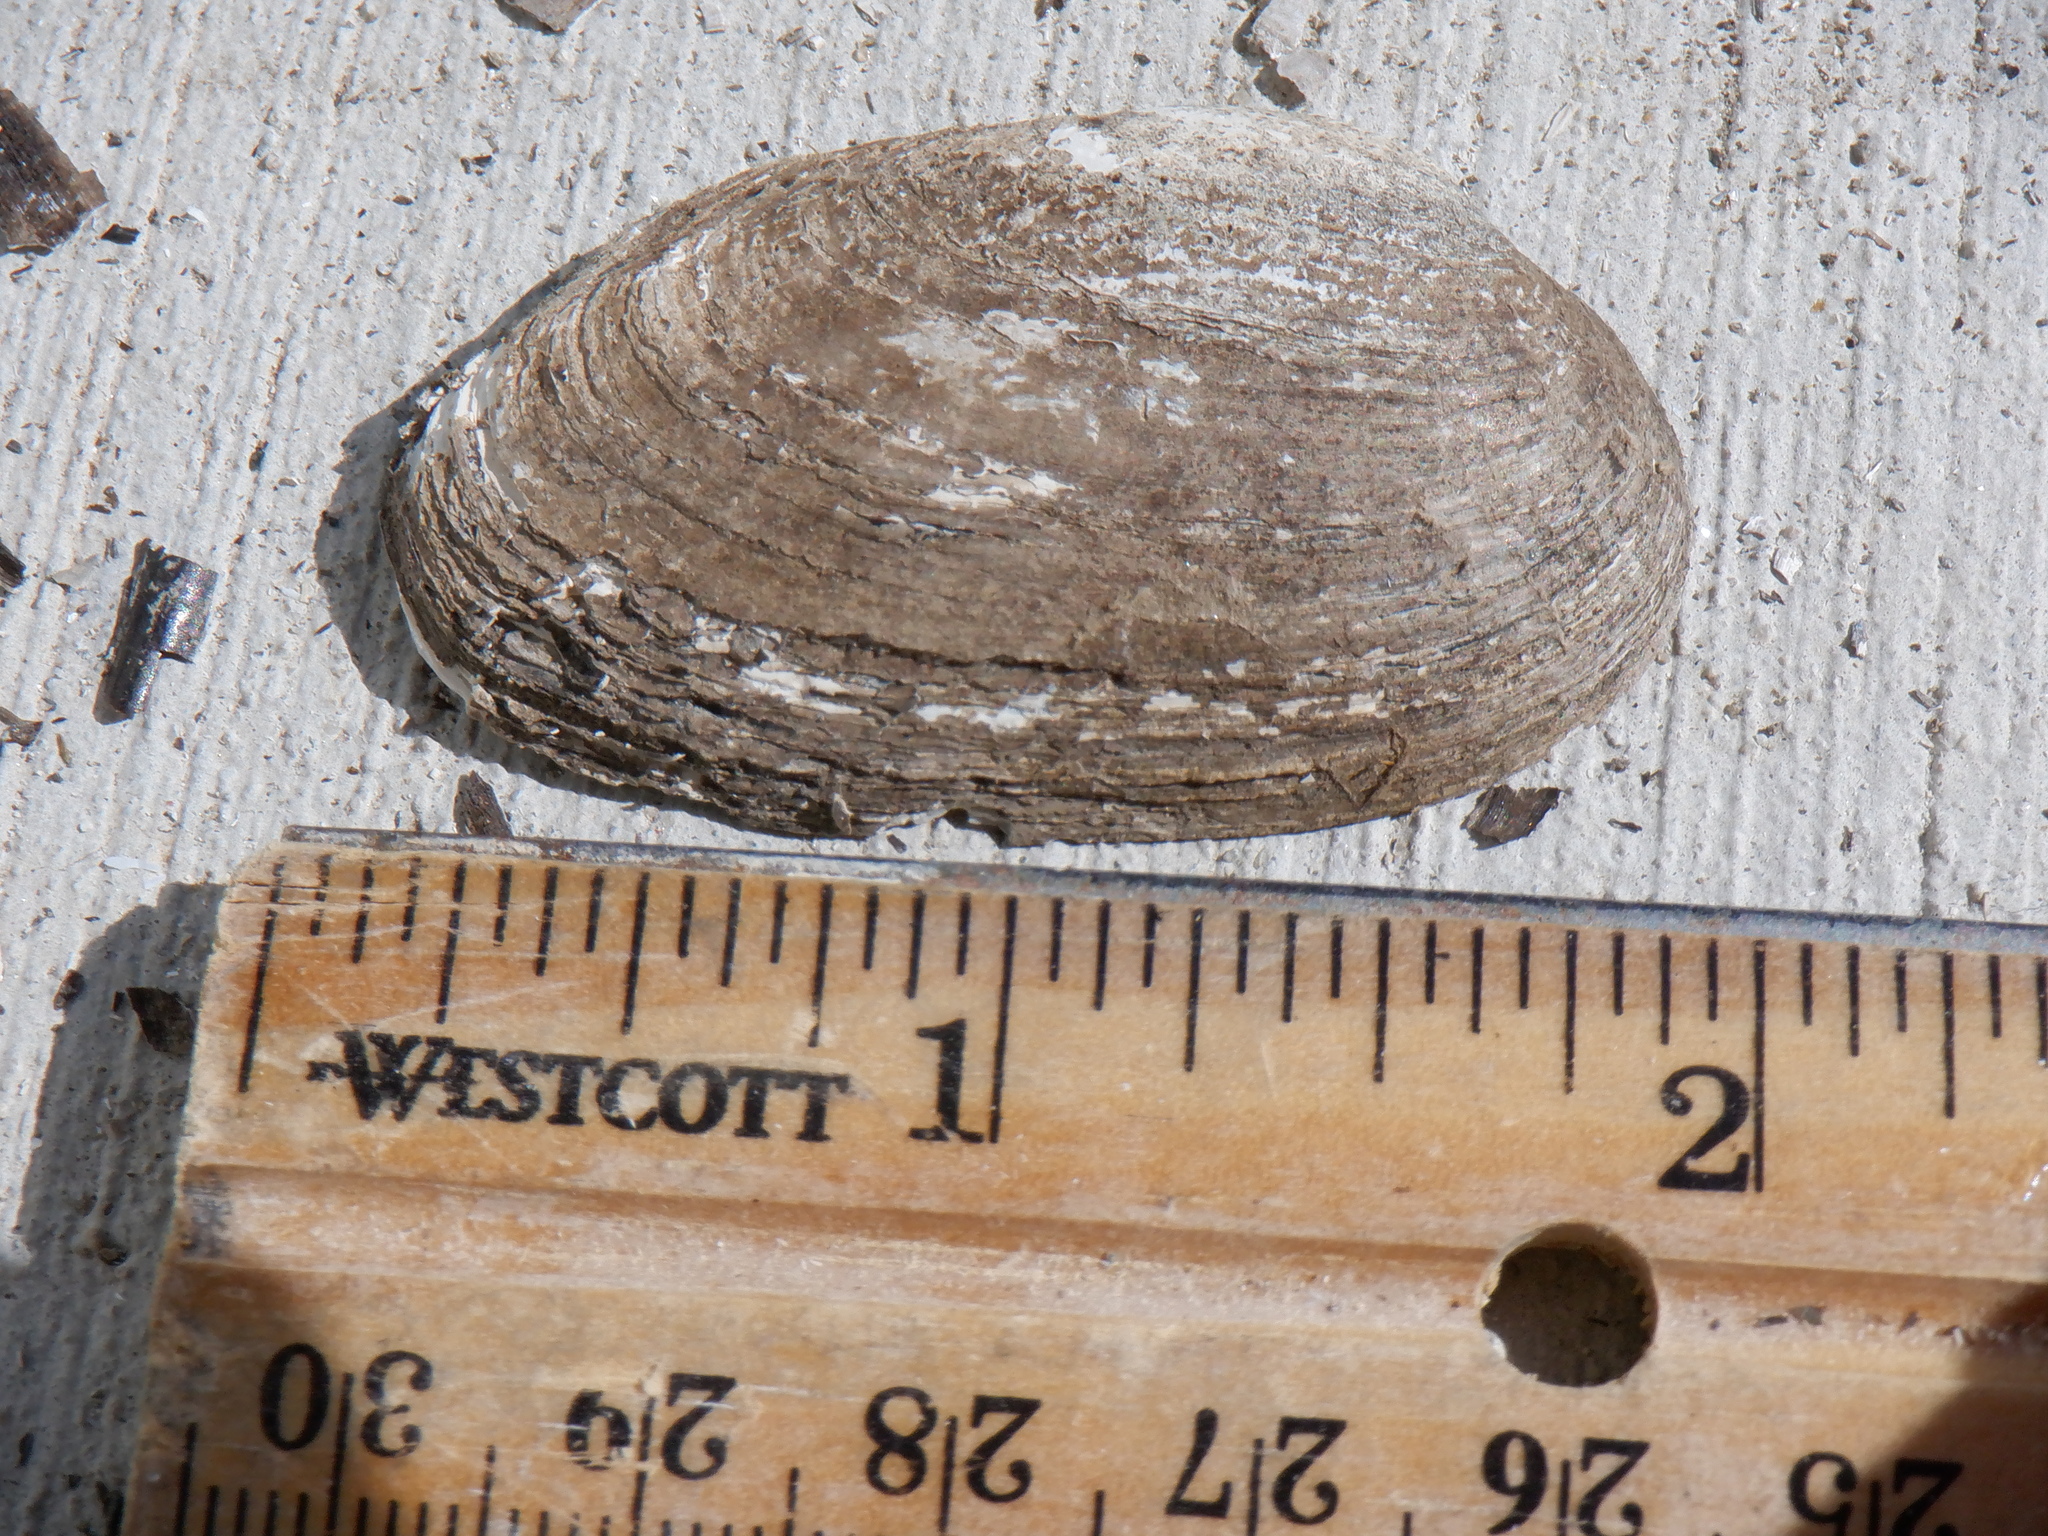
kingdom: Animalia
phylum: Mollusca
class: Bivalvia
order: Unionida
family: Unionidae
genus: Venustaconcha
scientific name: Venustaconcha ellipsiformis
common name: Ellipse
